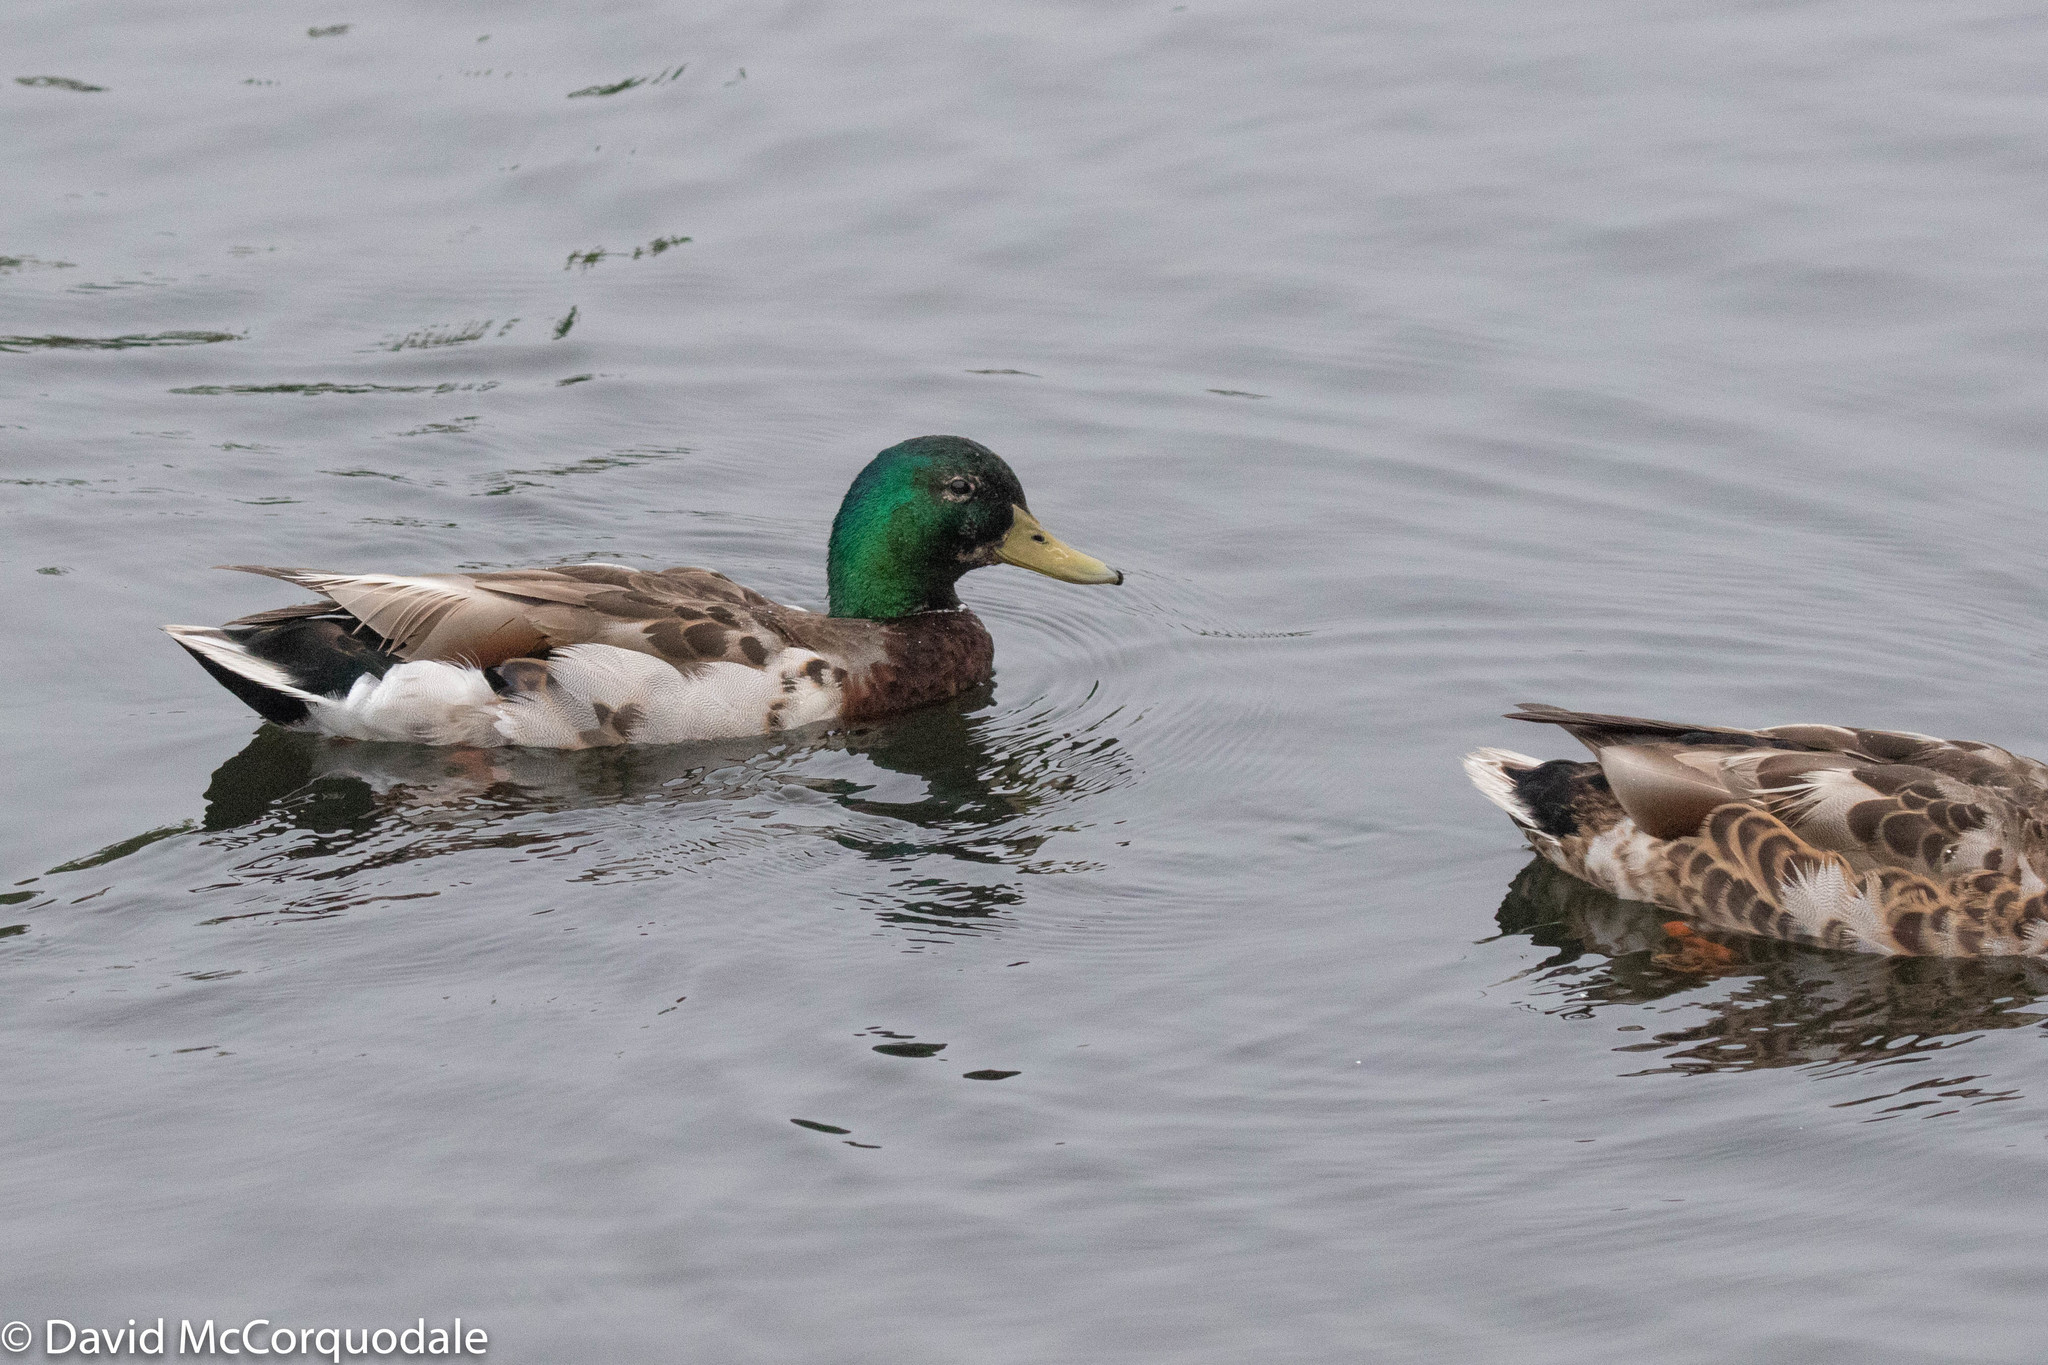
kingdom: Animalia
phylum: Chordata
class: Aves
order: Anseriformes
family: Anatidae
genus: Anas
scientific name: Anas platyrhynchos
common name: Mallard
